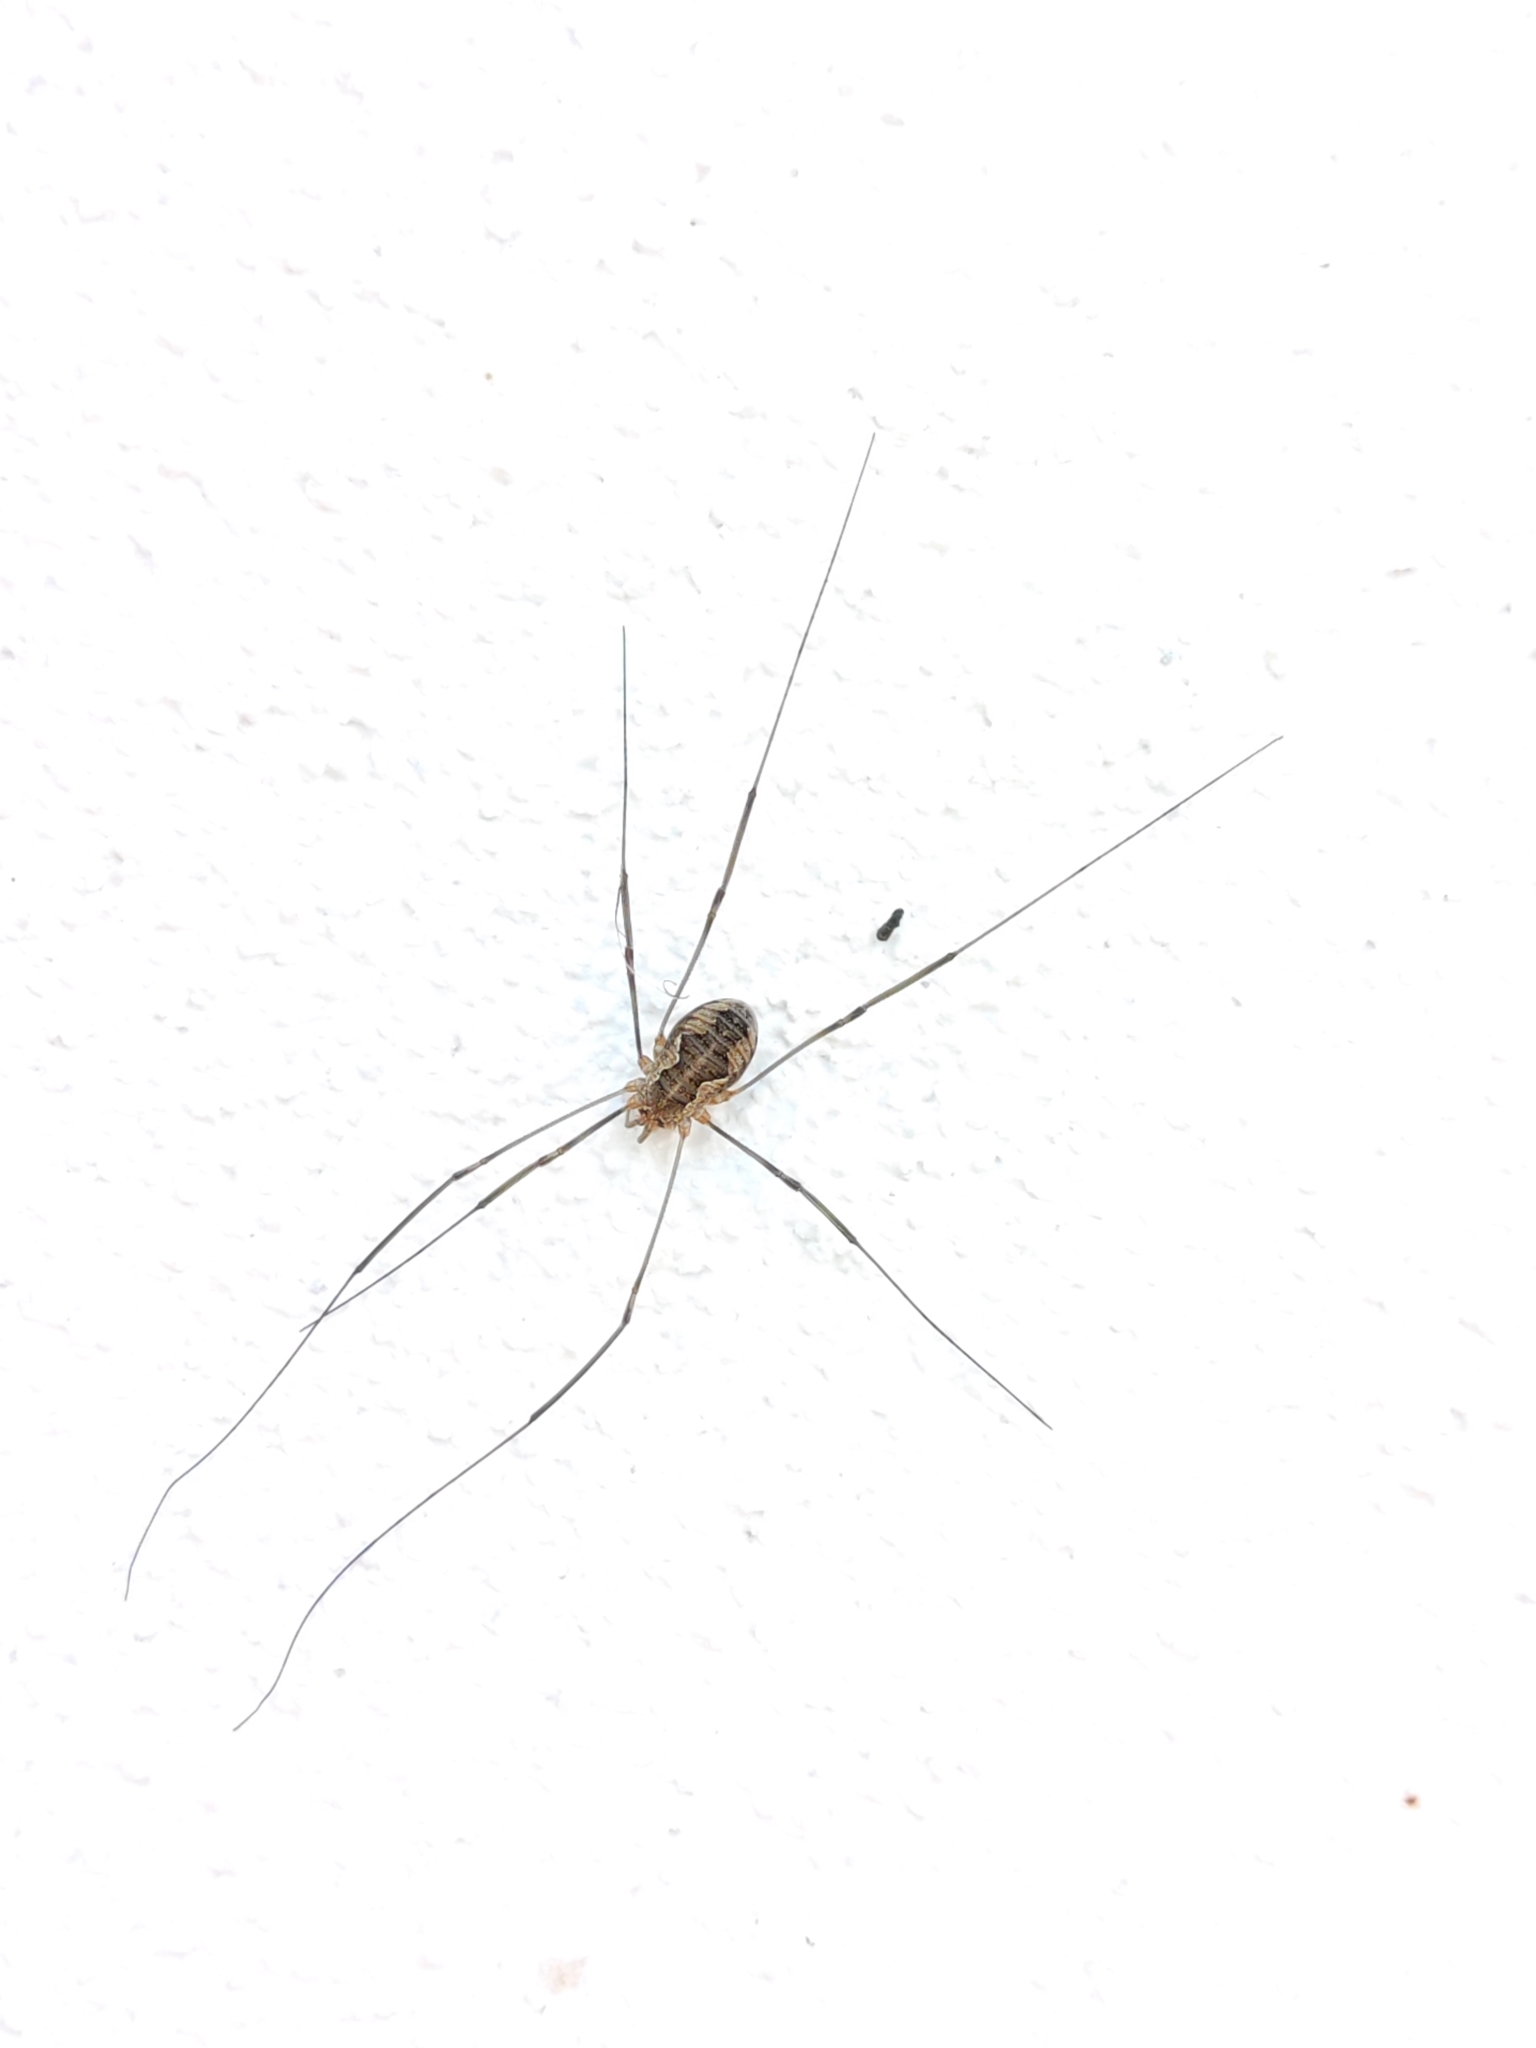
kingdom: Animalia
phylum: Arthropoda
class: Arachnida
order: Opiliones
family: Phalangiidae
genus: Phalangium
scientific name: Phalangium opilio
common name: Daddy longleg
